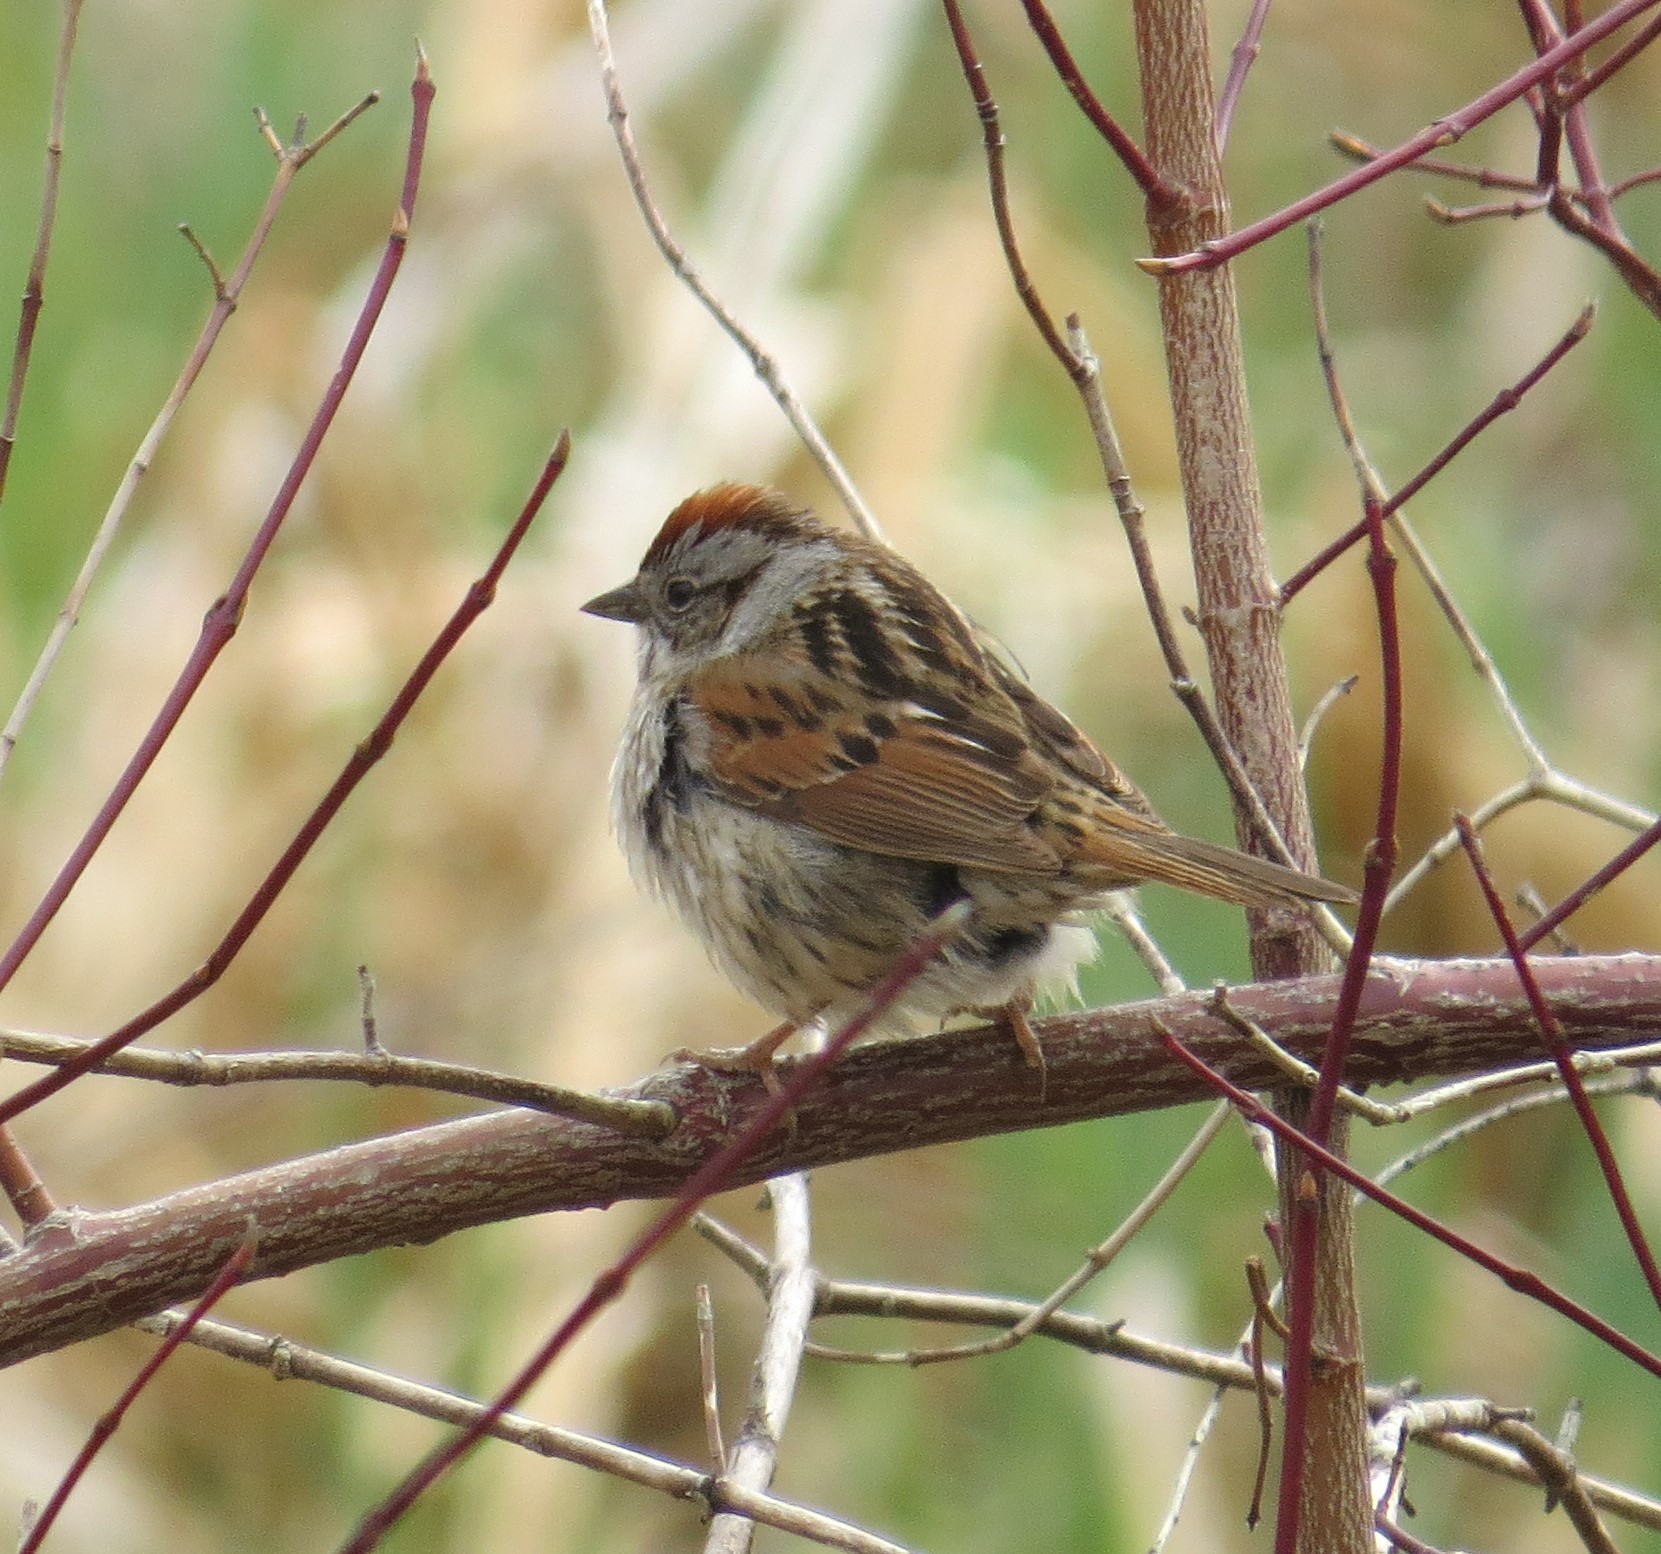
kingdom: Animalia
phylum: Chordata
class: Aves
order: Passeriformes
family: Passerellidae
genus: Melospiza
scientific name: Melospiza georgiana
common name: Swamp sparrow
